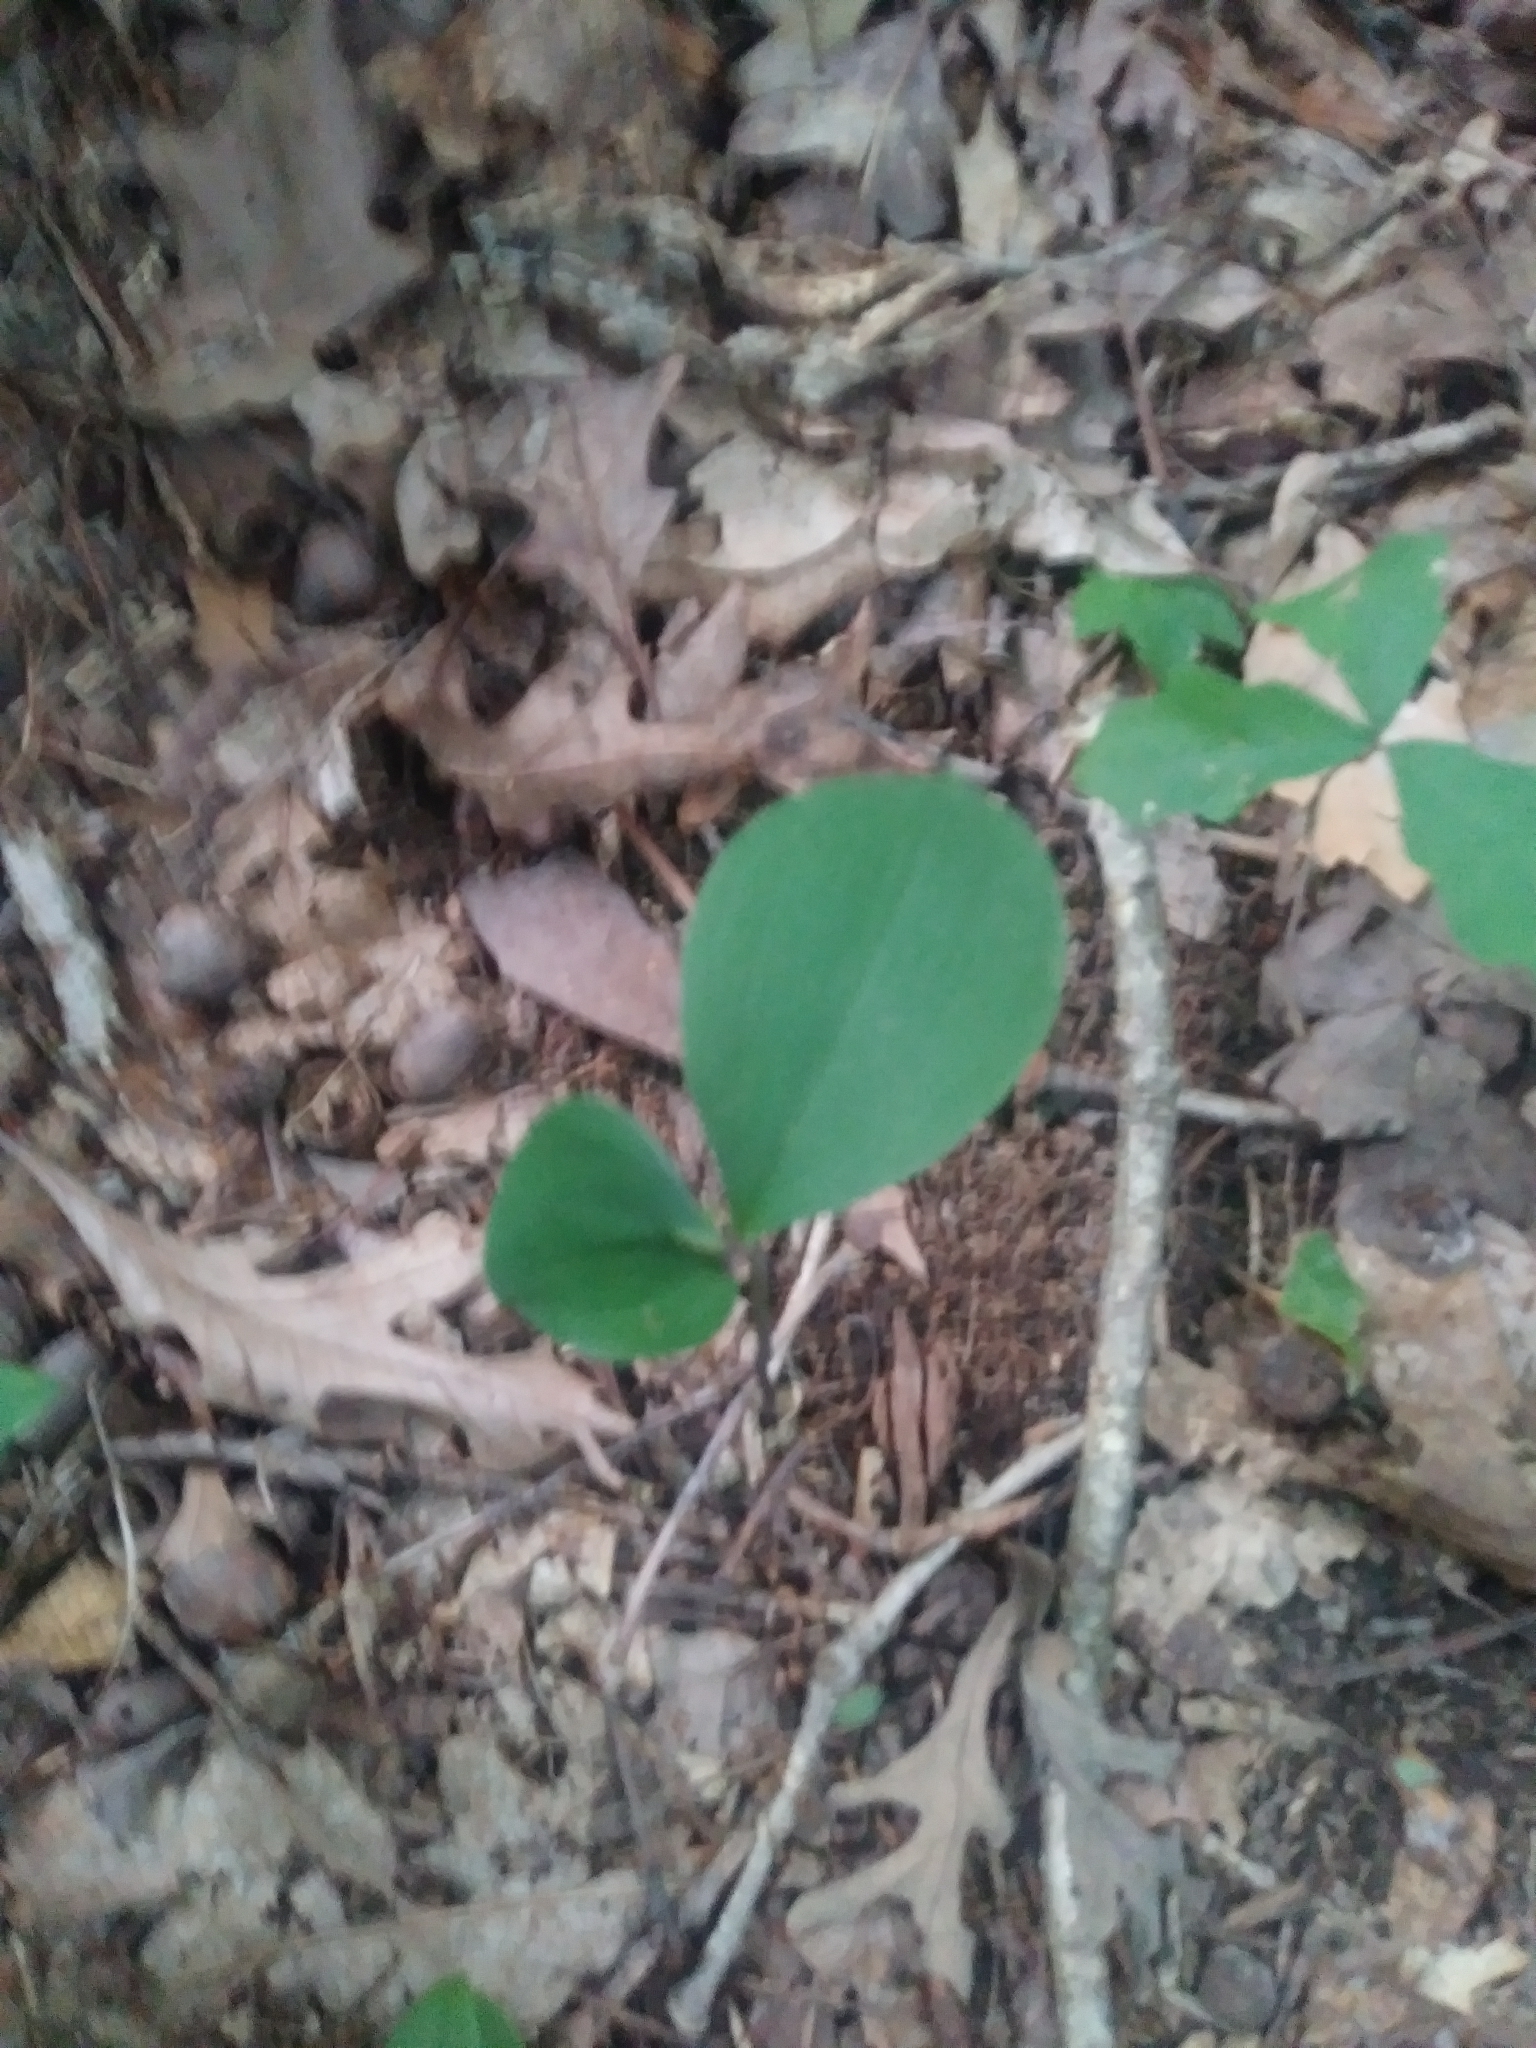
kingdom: Plantae
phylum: Tracheophyta
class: Liliopsida
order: Asparagales
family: Orchidaceae
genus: Isotria
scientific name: Isotria verticillata
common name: Large whorled pogonia
